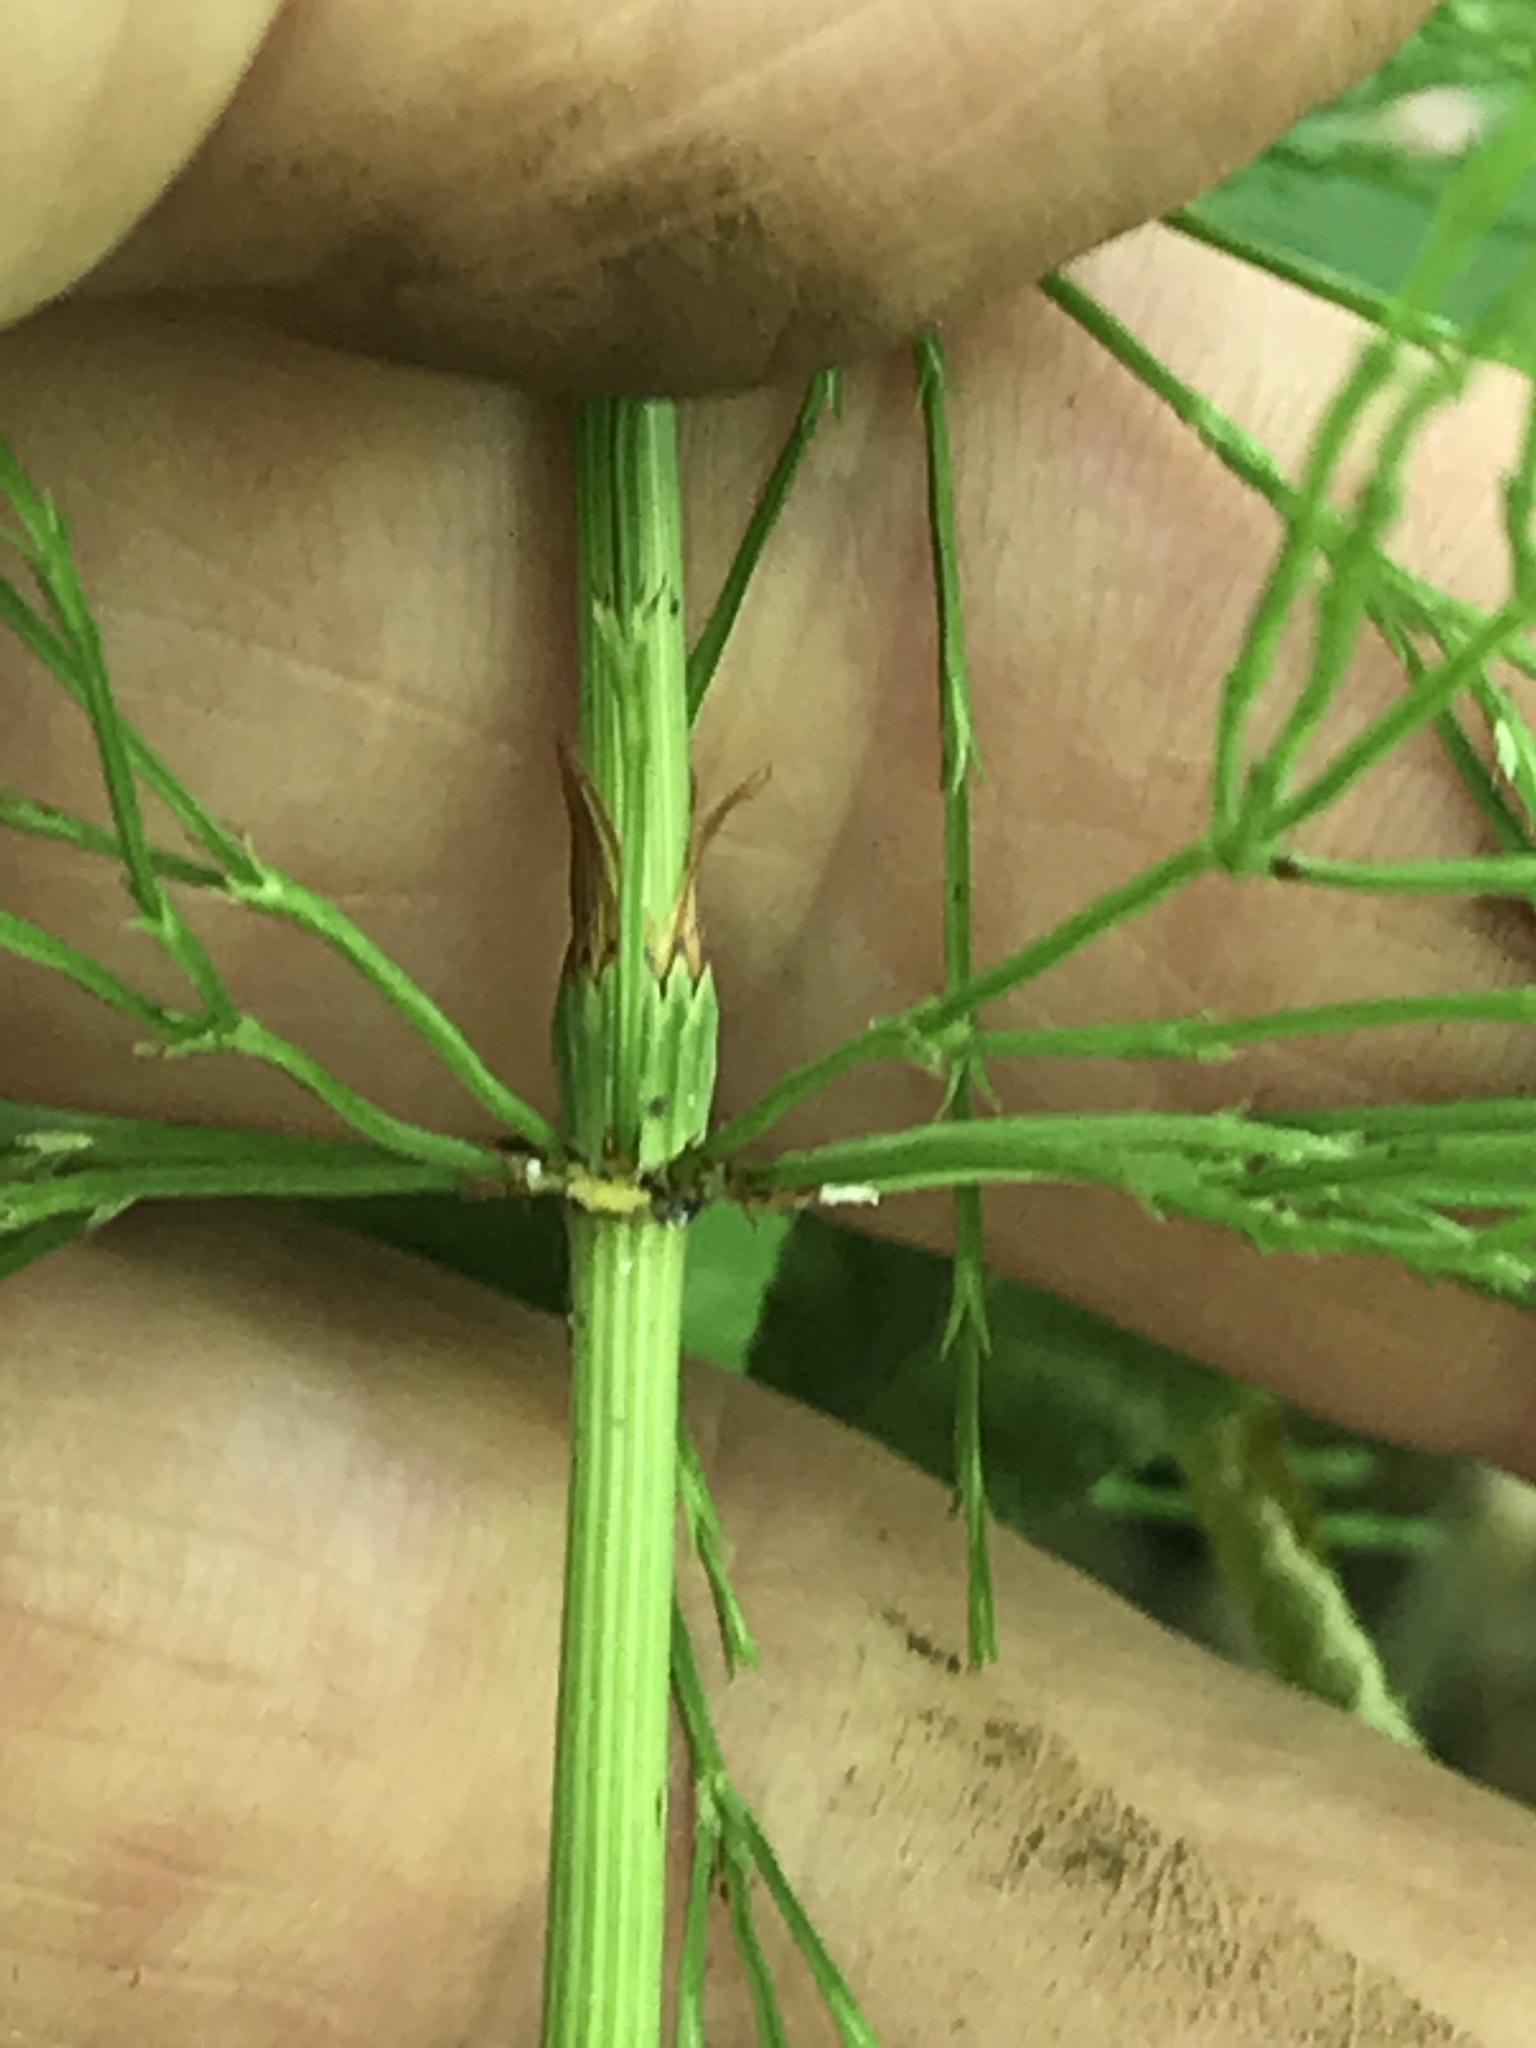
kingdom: Plantae
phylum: Tracheophyta
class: Polypodiopsida
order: Equisetales
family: Equisetaceae
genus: Equisetum
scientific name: Equisetum sylvaticum
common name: Wood horsetail
